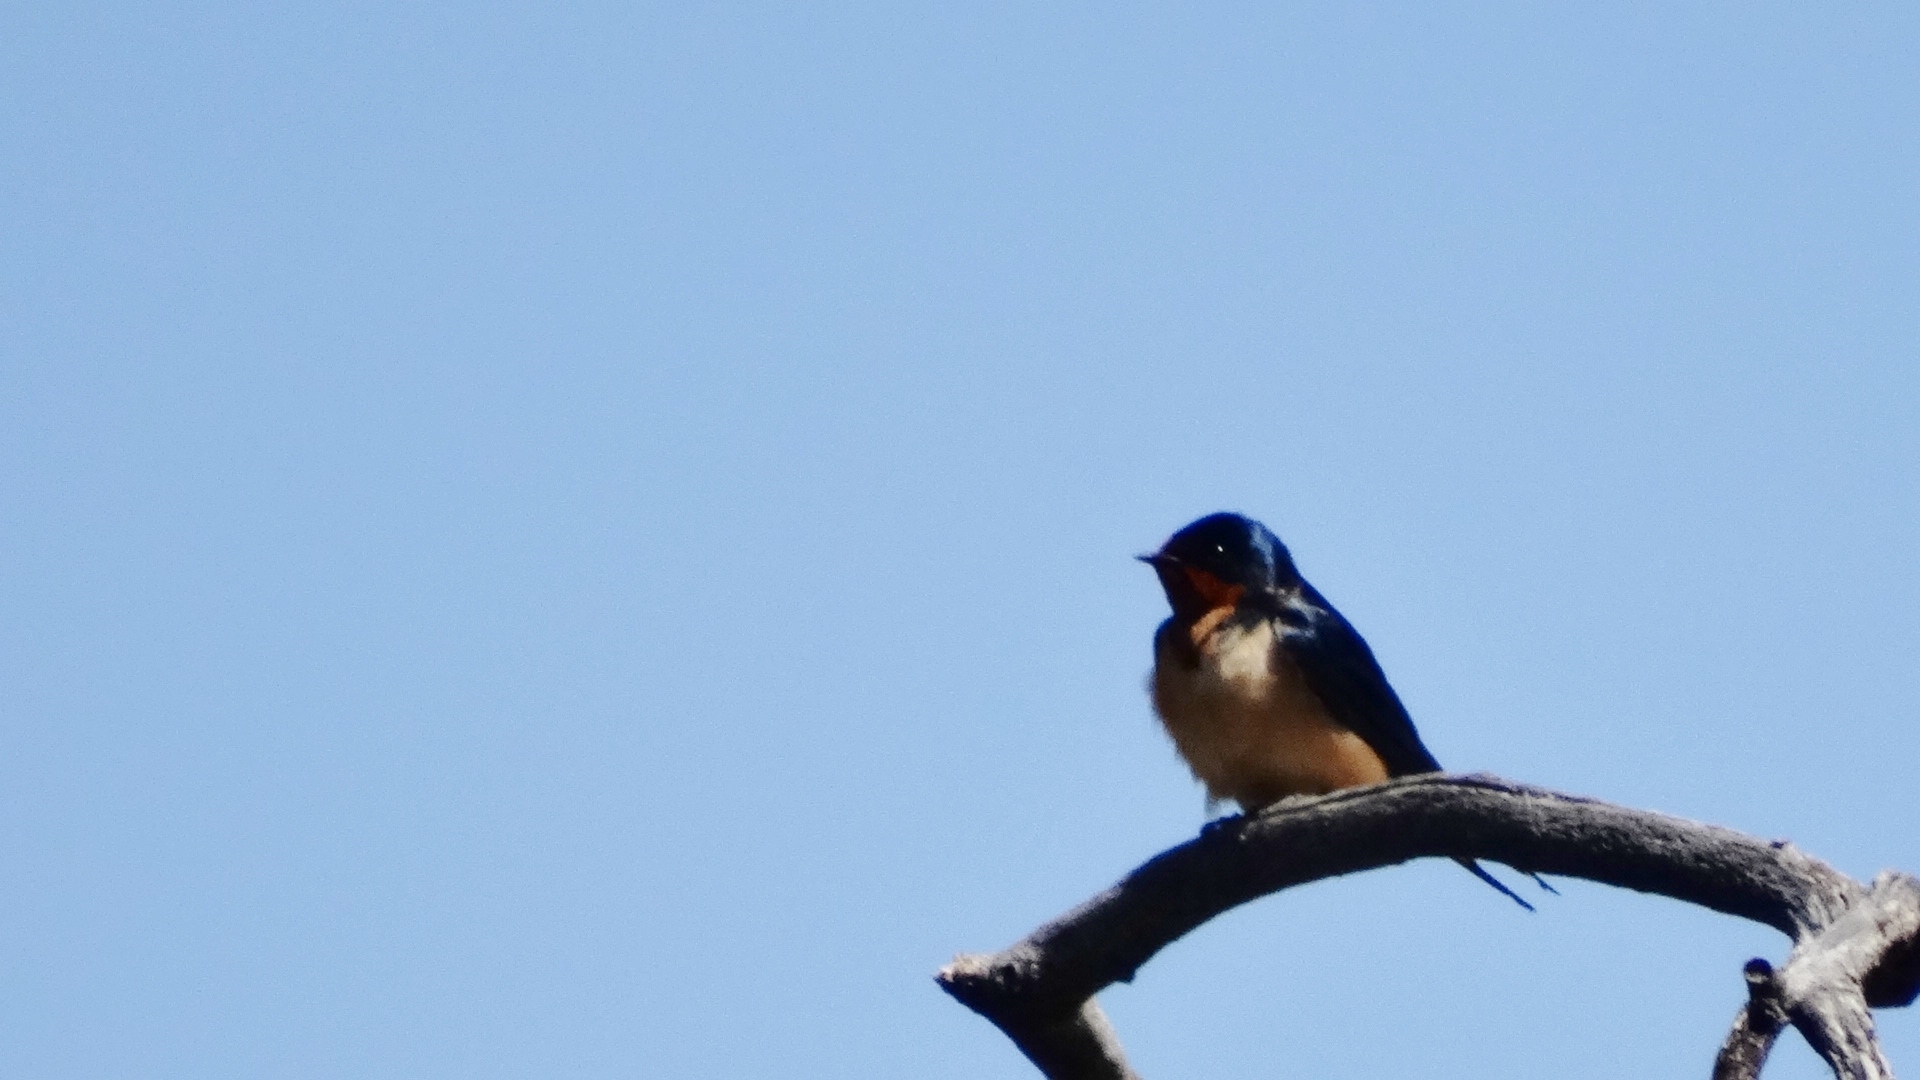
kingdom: Animalia
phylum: Chordata
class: Aves
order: Passeriformes
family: Hirundinidae
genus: Hirundo
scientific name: Hirundo rustica
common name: Barn swallow
